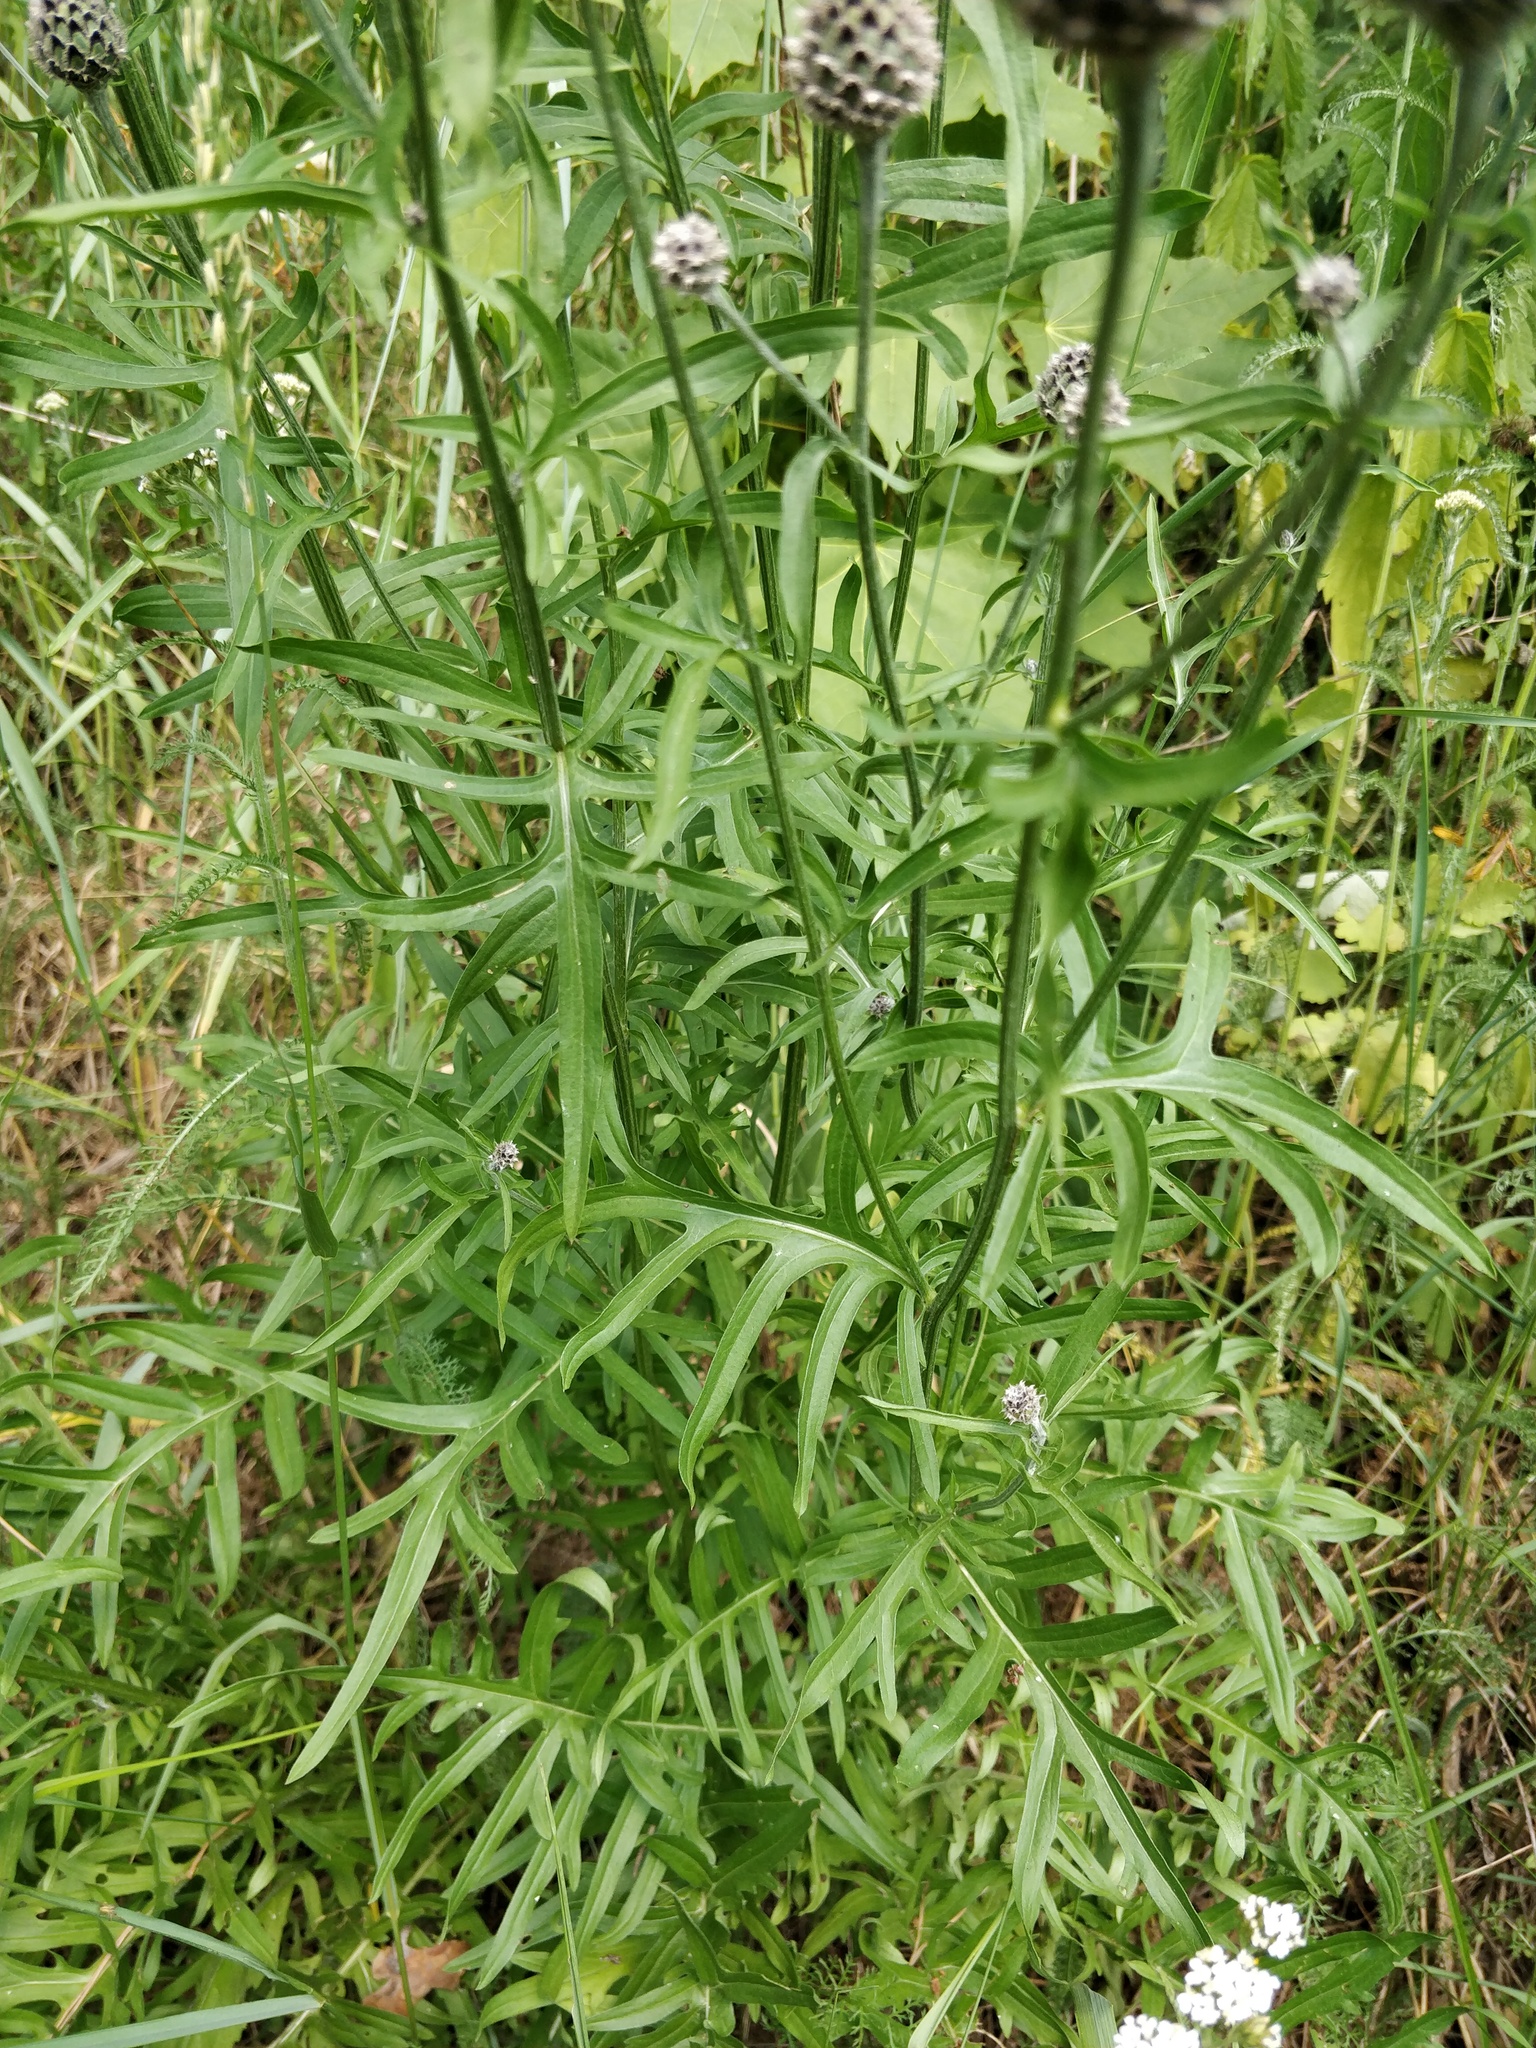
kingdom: Plantae
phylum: Tracheophyta
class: Magnoliopsida
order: Asterales
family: Asteraceae
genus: Centaurea
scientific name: Centaurea scabiosa
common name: Greater knapweed
